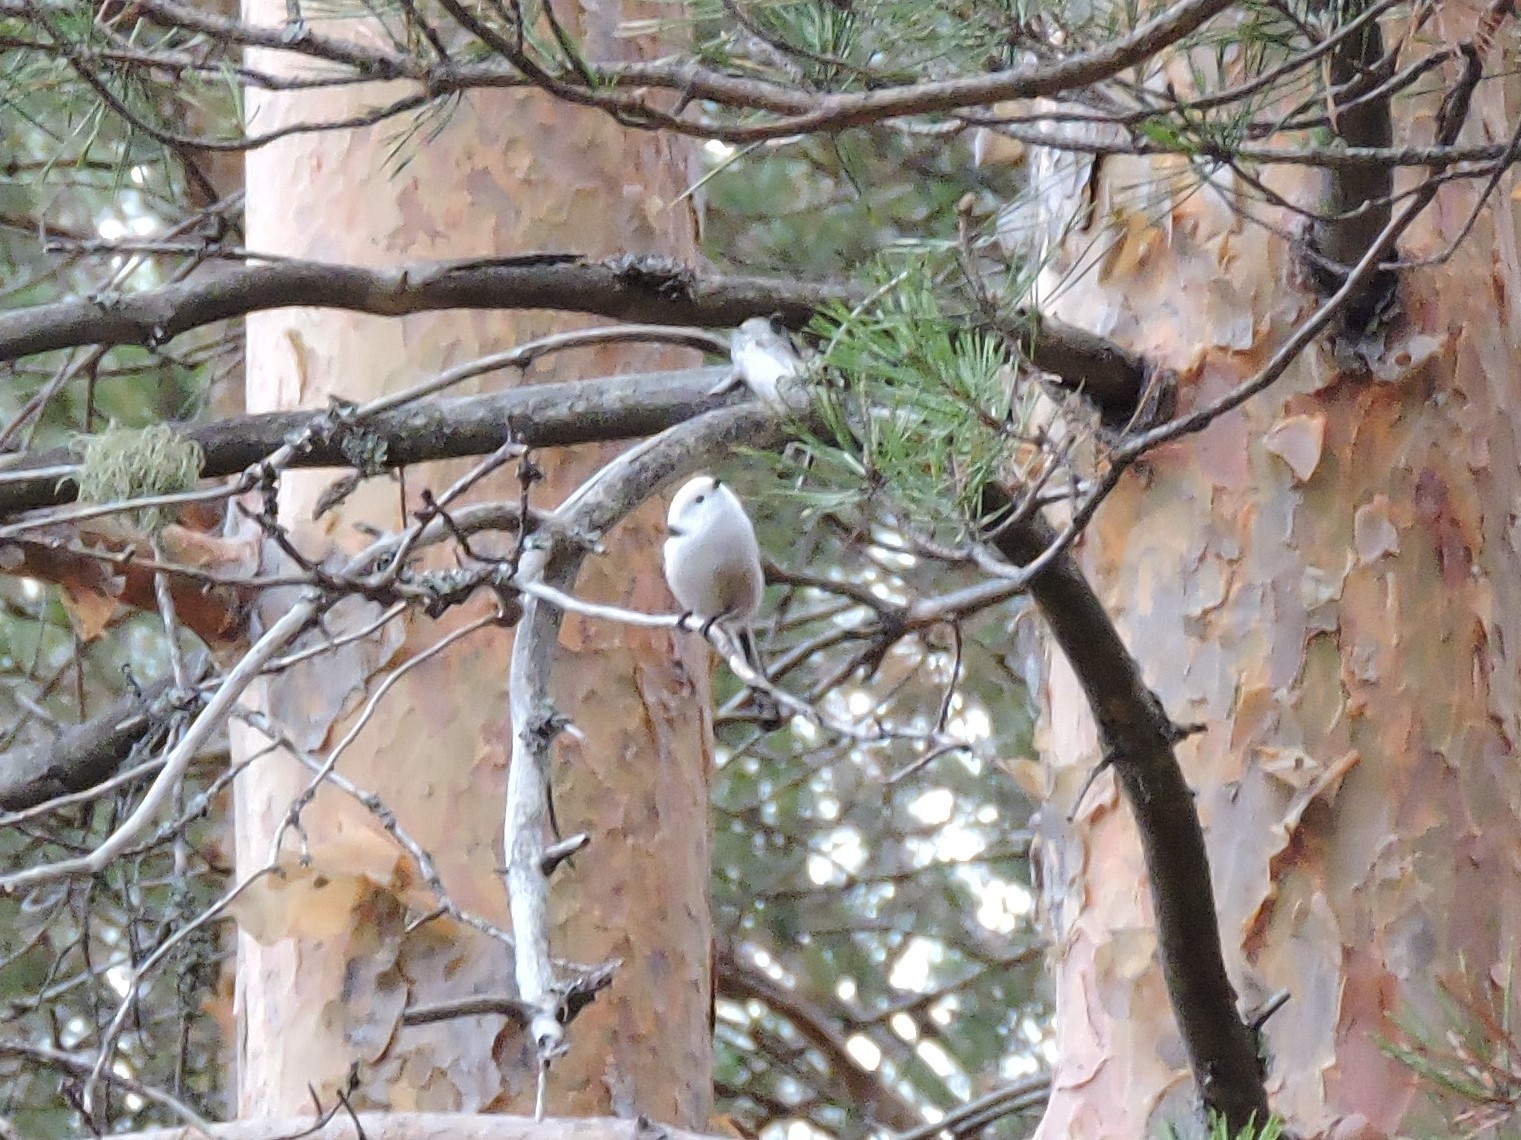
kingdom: Animalia
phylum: Chordata
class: Aves
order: Passeriformes
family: Aegithalidae
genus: Aegithalos
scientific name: Aegithalos caudatus
